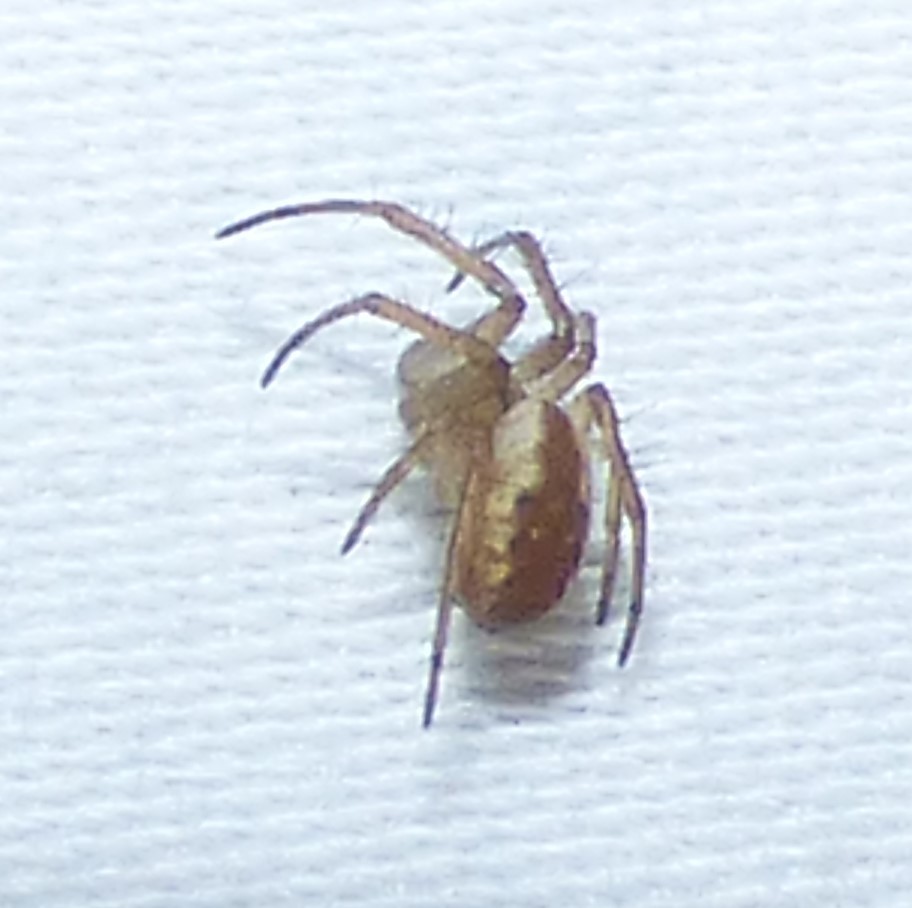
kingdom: Animalia
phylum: Arthropoda
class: Arachnida
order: Araneae
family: Araneidae
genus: Mangora
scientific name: Mangora placida
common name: Tuft-legged orbweaver
